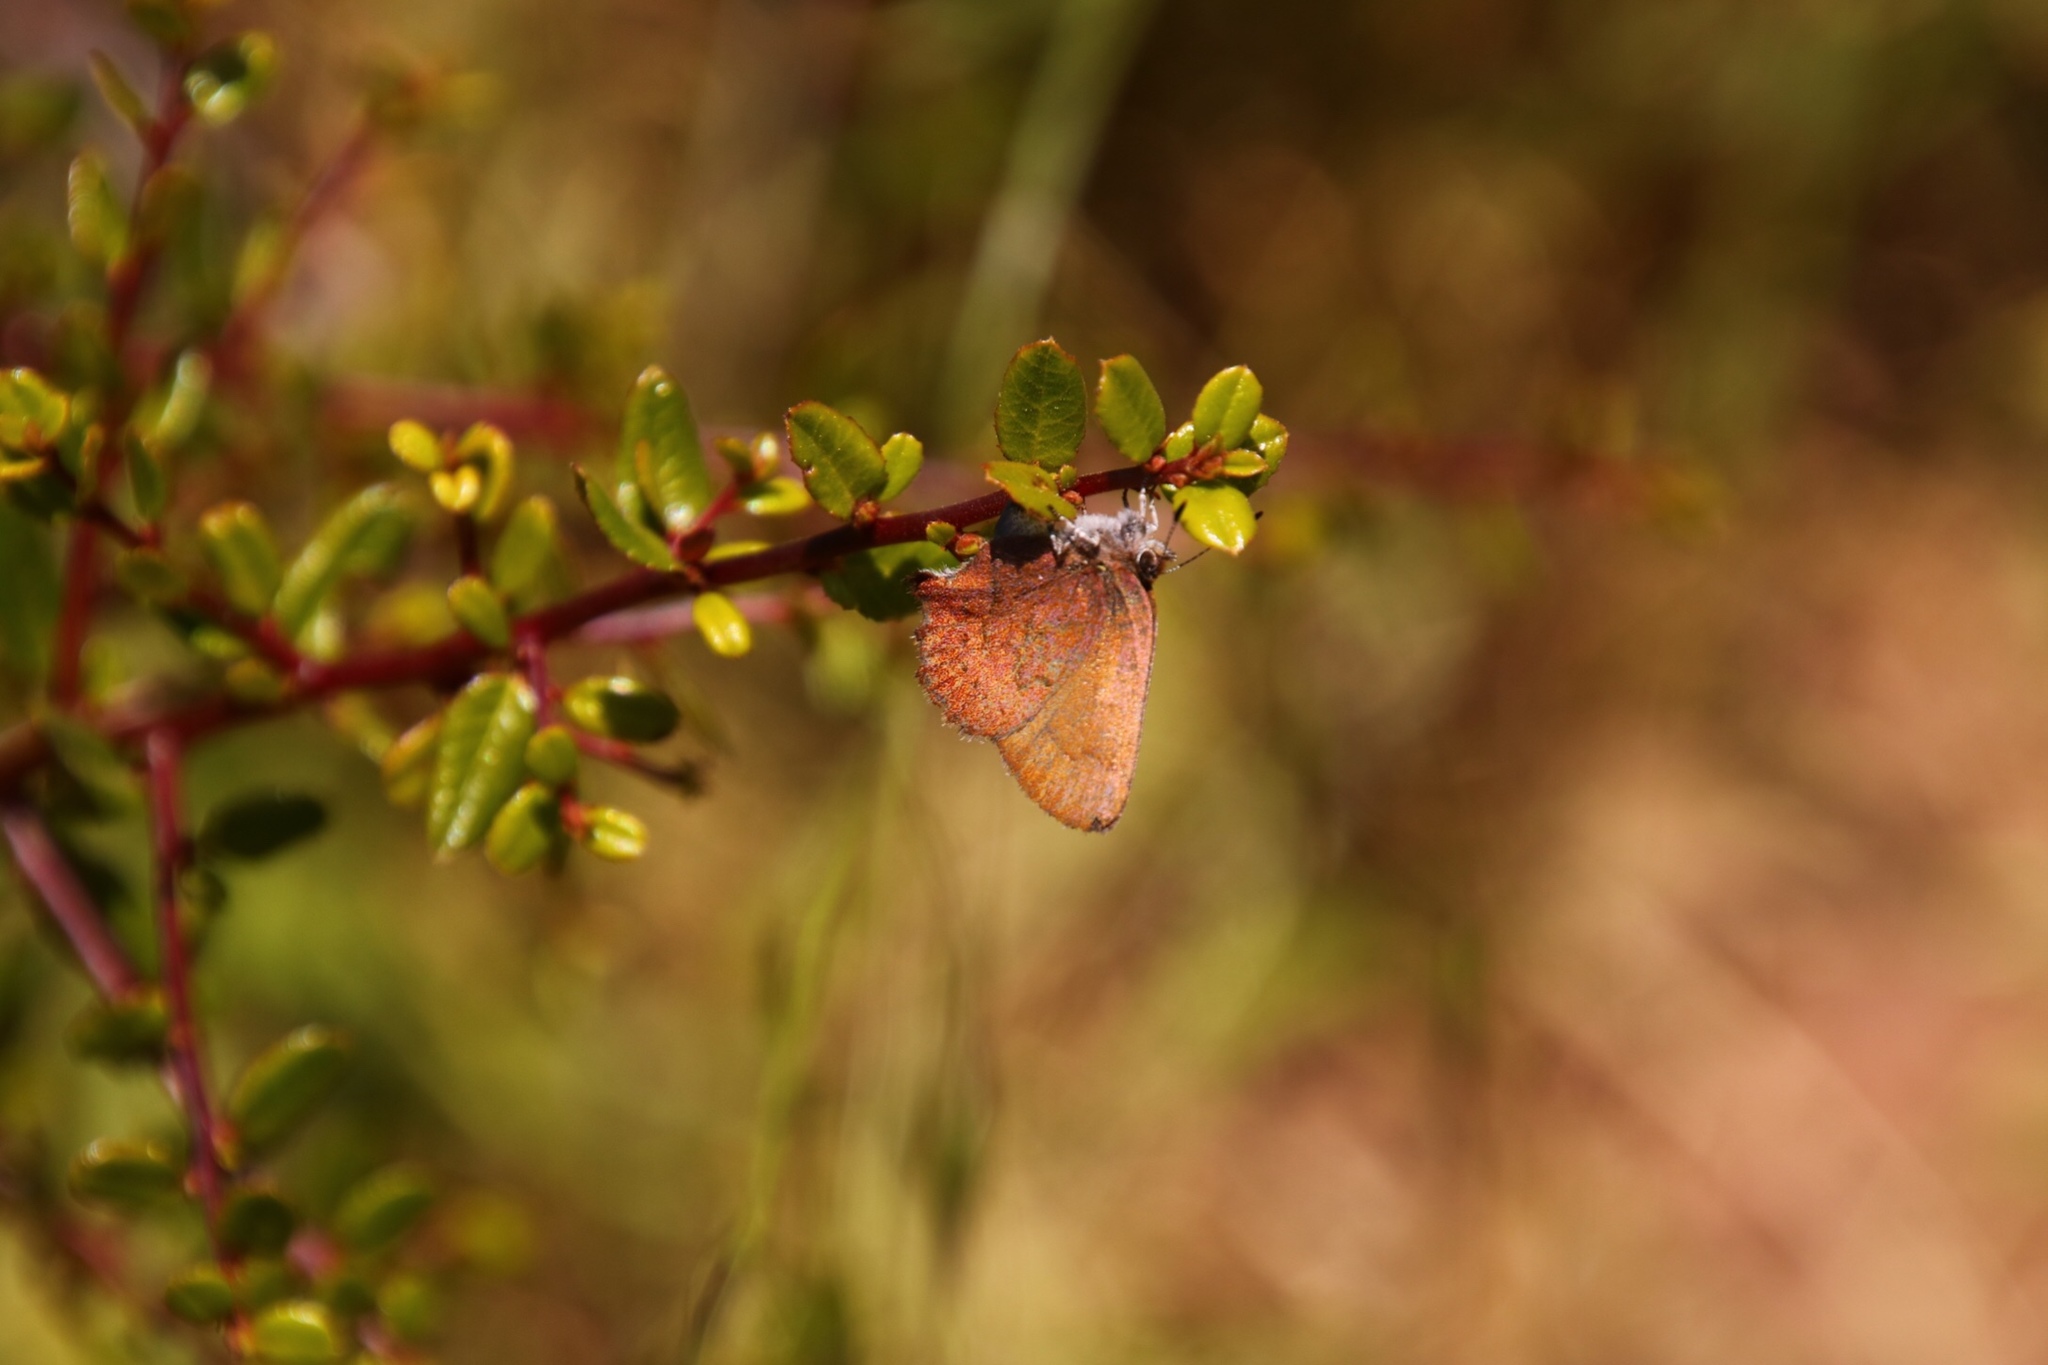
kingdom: Animalia
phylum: Arthropoda
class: Insecta
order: Lepidoptera
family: Lycaenidae
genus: Incisalia
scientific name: Incisalia irioides
